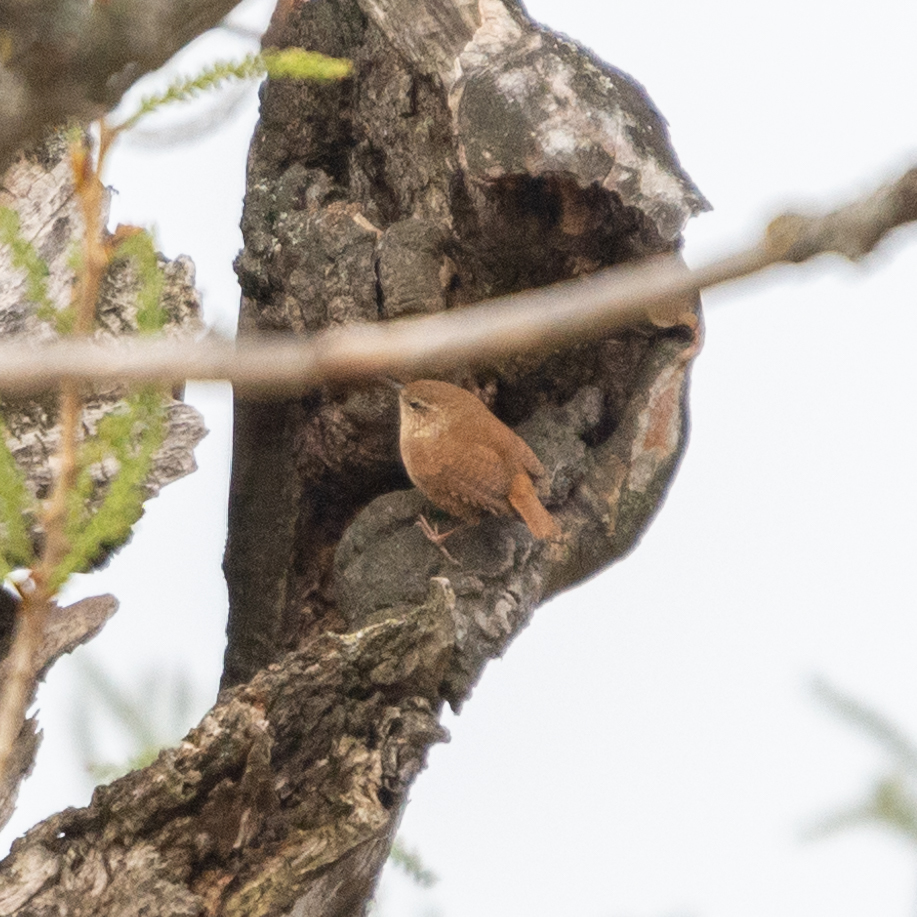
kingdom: Animalia
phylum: Chordata
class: Aves
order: Passeriformes
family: Troglodytidae
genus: Troglodytes
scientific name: Troglodytes troglodytes
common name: Eurasian wren
